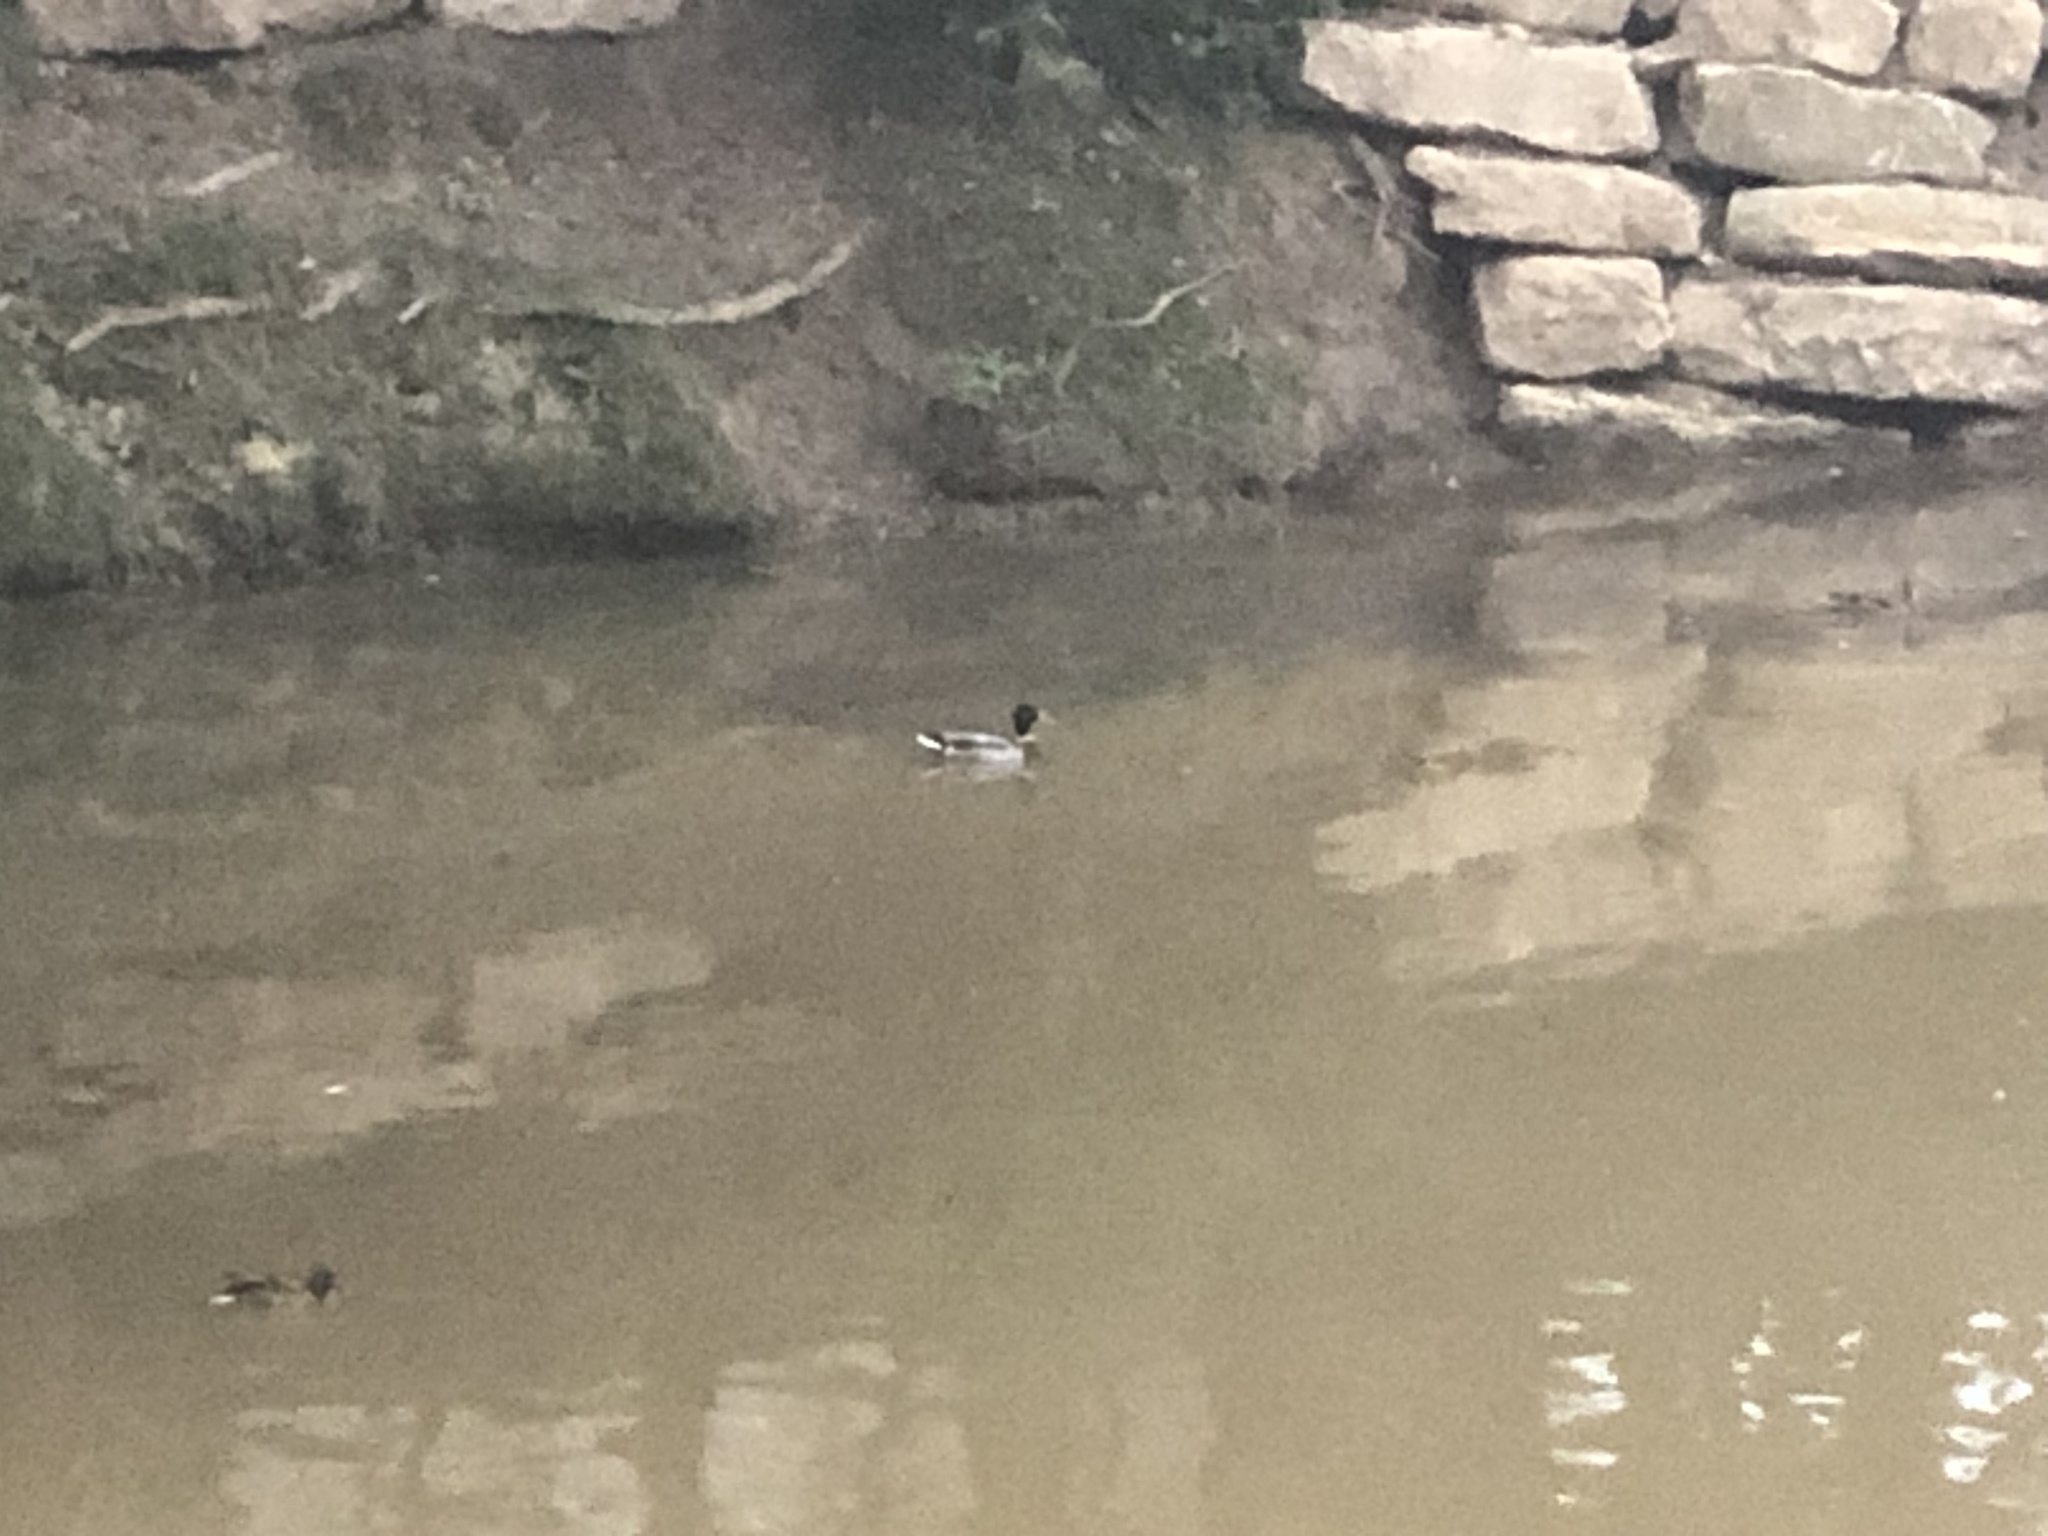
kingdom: Animalia
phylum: Chordata
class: Aves
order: Anseriformes
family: Anatidae
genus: Anas
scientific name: Anas platyrhynchos
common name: Mallard
